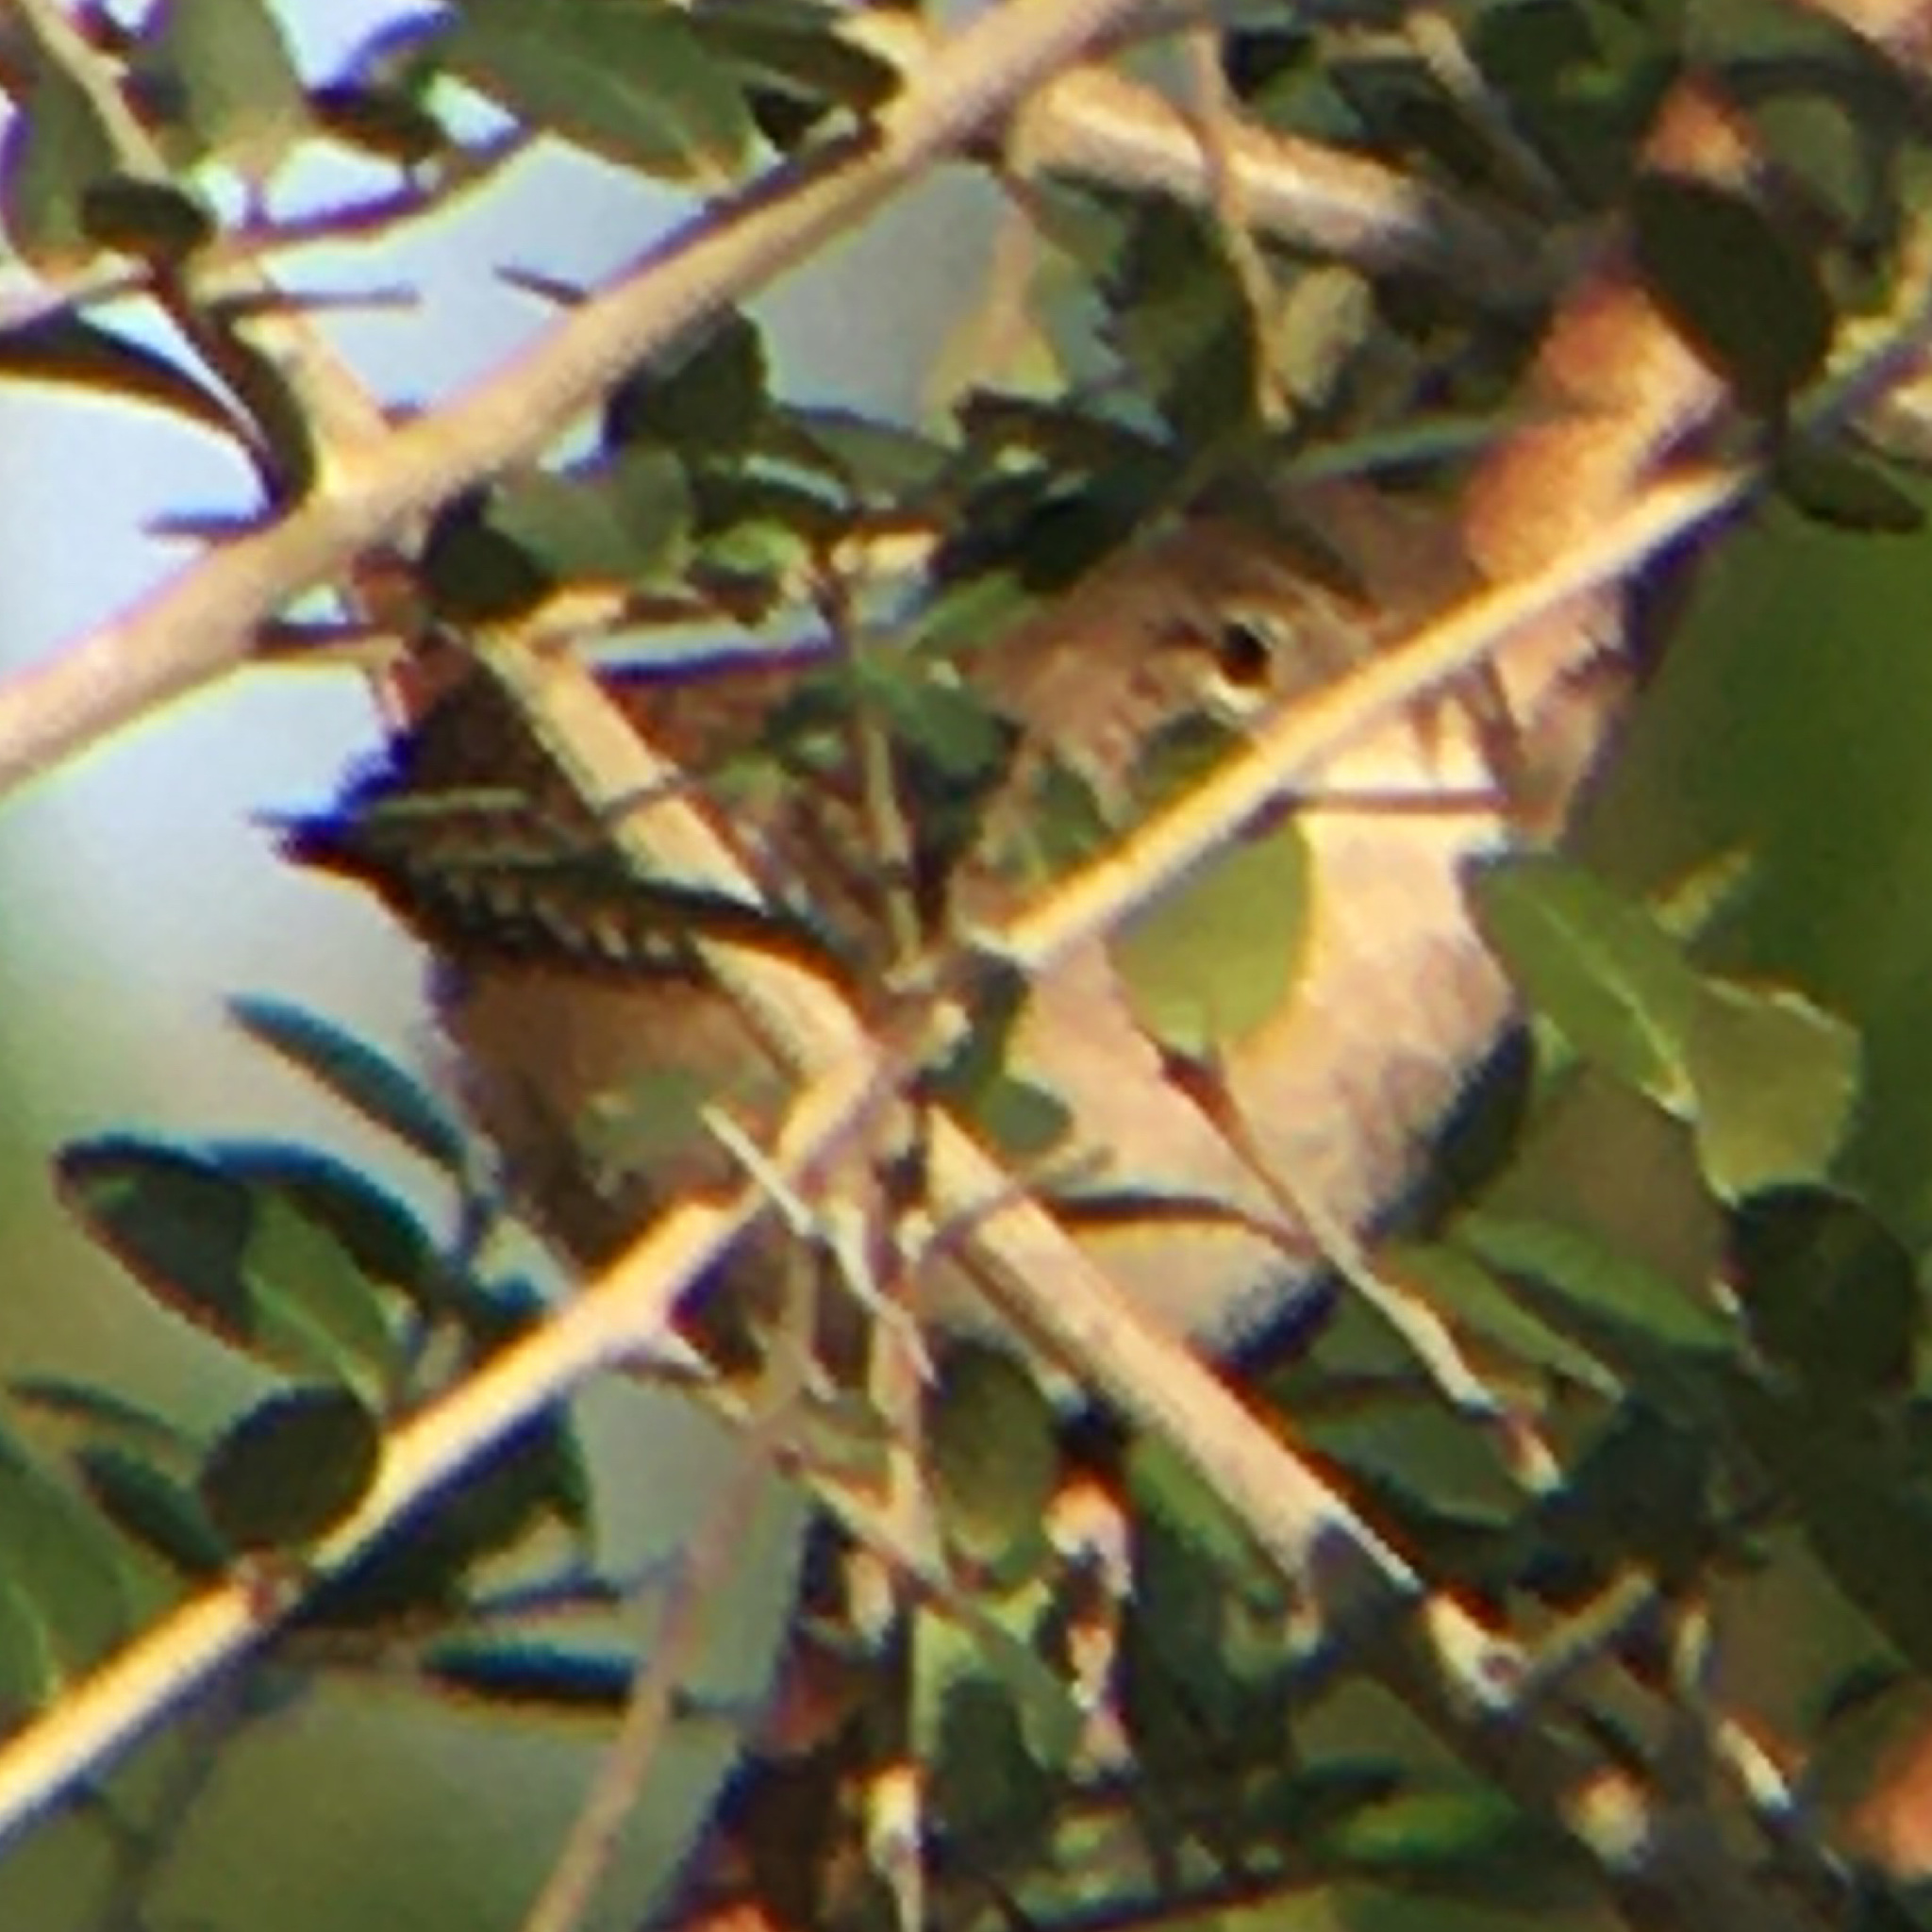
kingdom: Animalia
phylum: Chordata
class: Aves
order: Passeriformes
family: Troglodytidae
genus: Troglodytes
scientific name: Troglodytes aedon
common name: House wren
